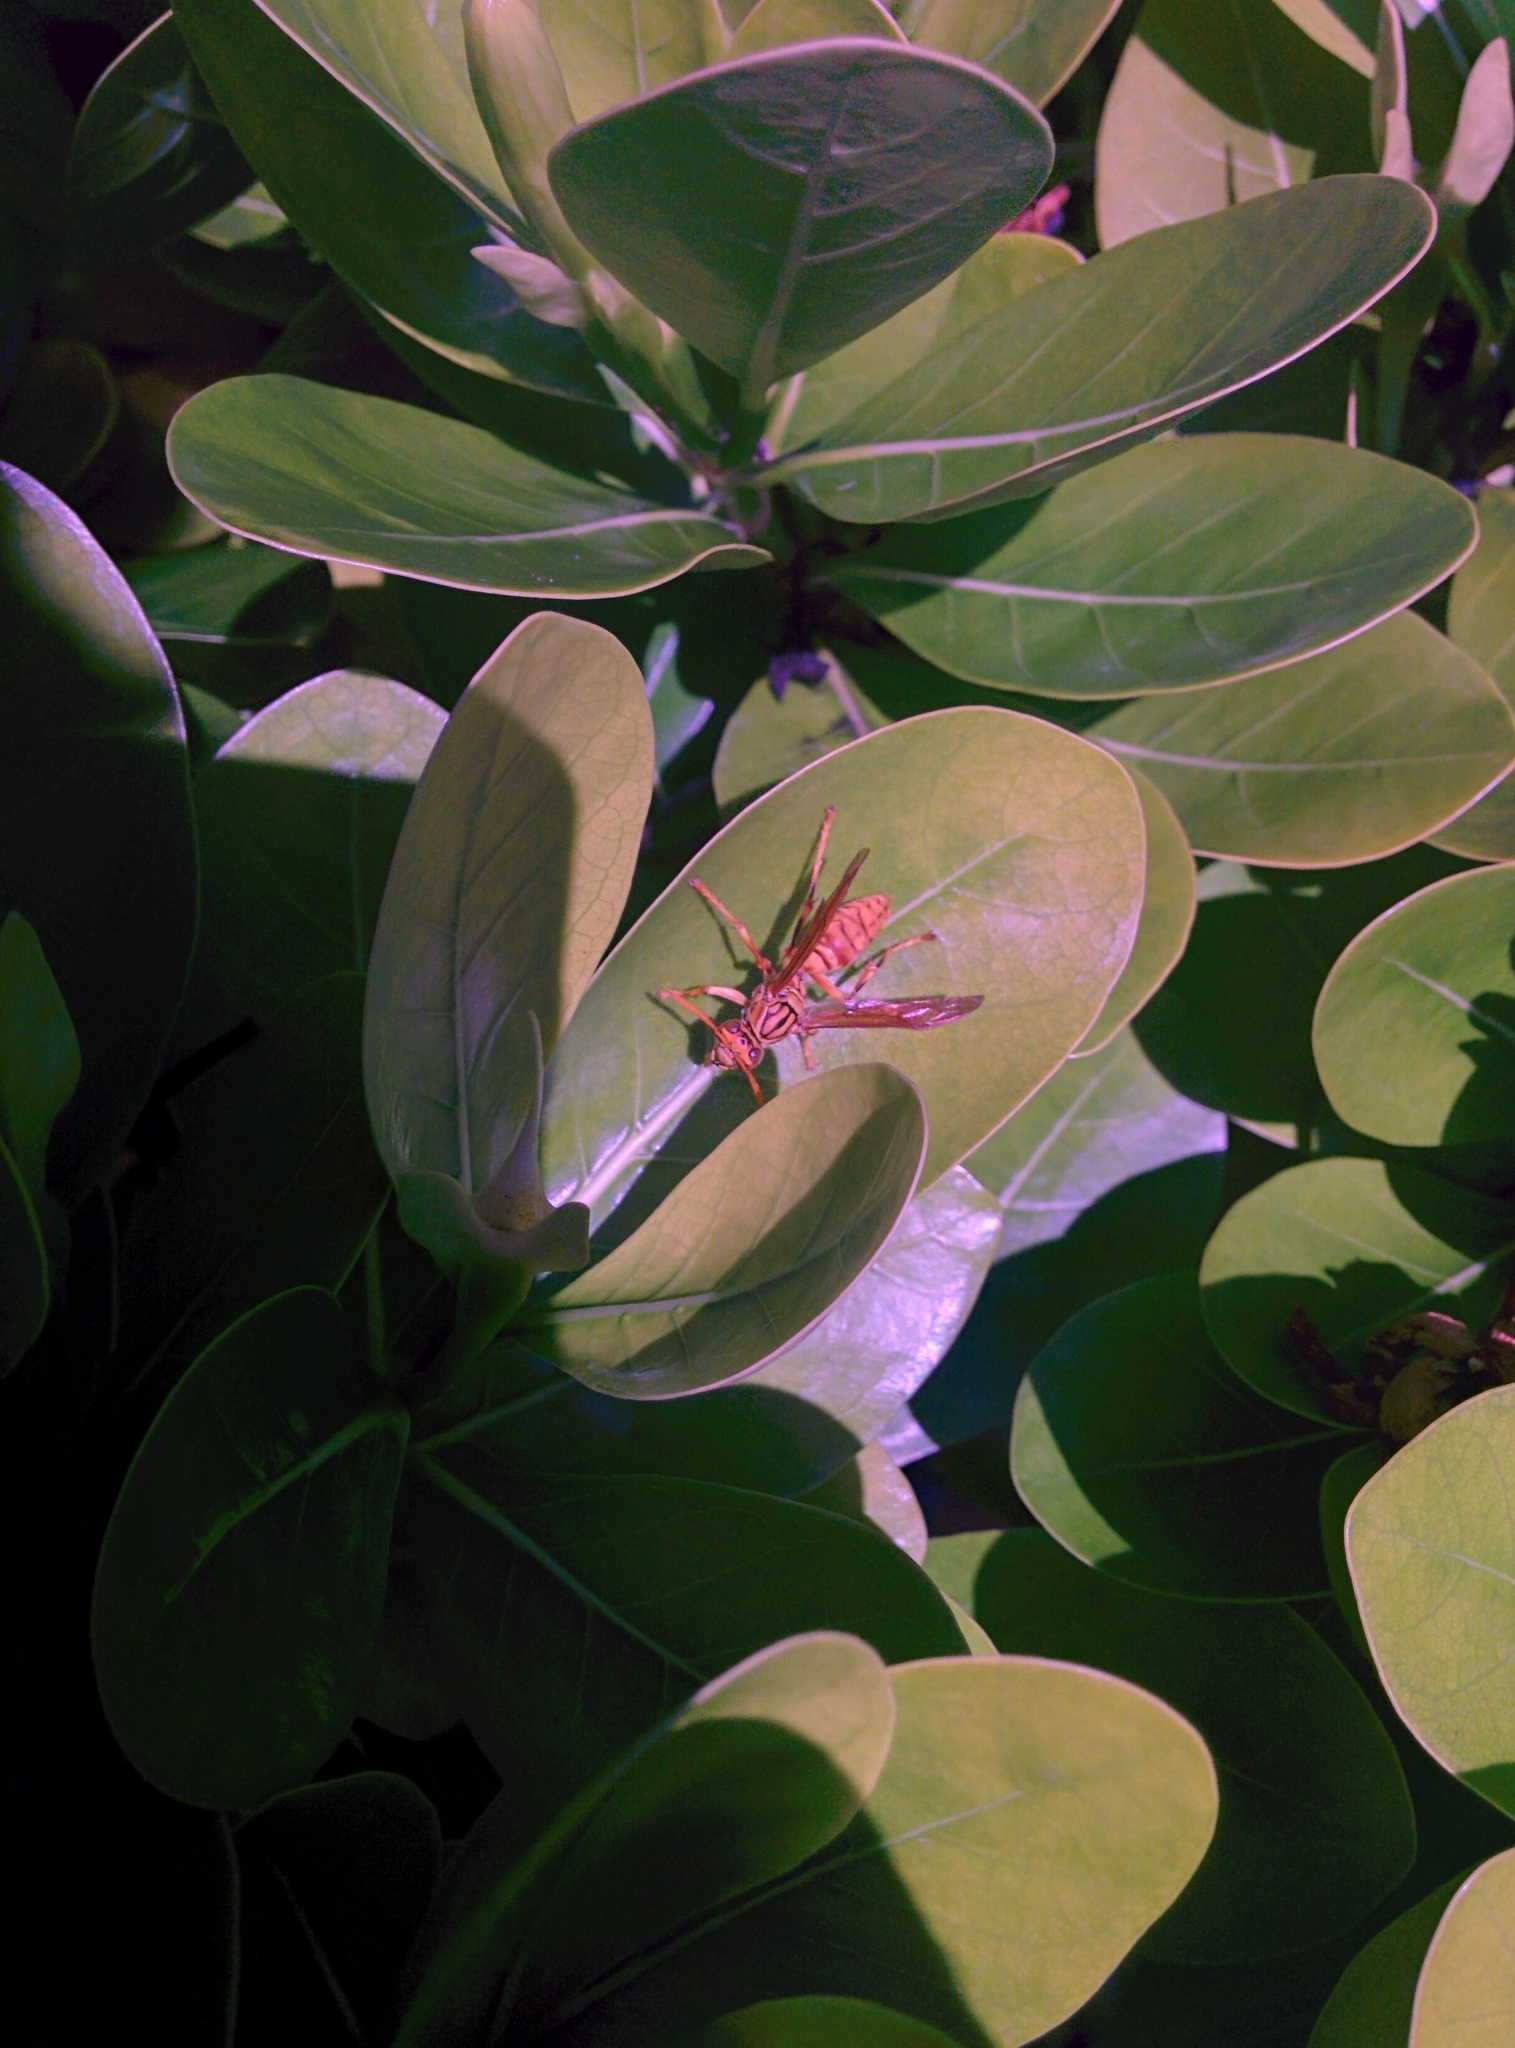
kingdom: Animalia
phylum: Arthropoda
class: Insecta
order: Hymenoptera
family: Eumenidae
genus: Polistes
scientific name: Polistes olivaceus
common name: Paper wasp
